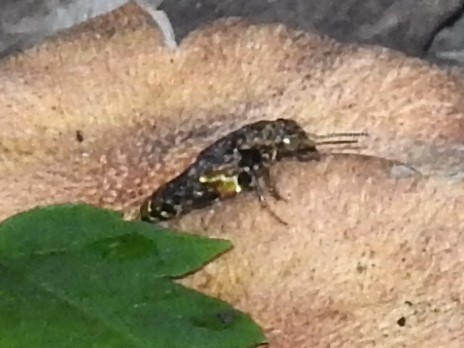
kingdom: Animalia
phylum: Arthropoda
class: Insecta
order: Coleoptera
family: Staphylinidae
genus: Ontholestes
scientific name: Ontholestes cingulatus
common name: Gold-and-brown rove beetle
